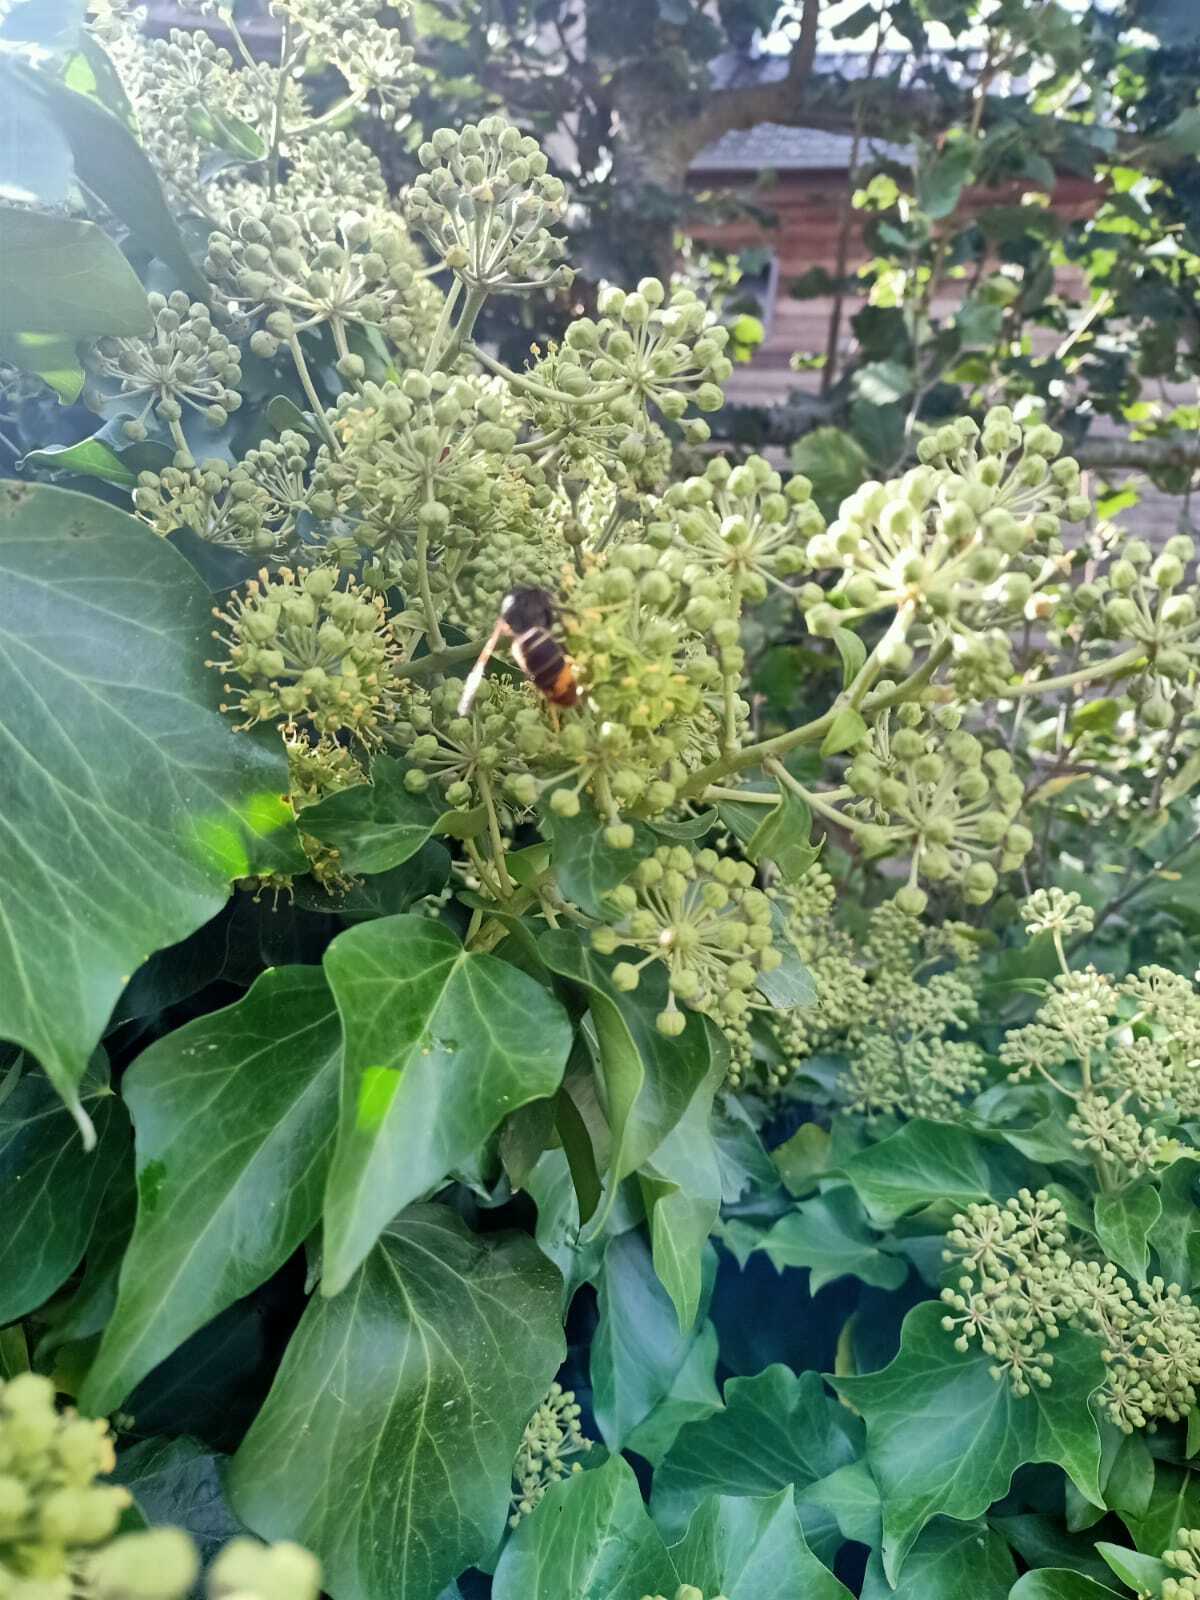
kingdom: Animalia
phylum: Arthropoda
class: Insecta
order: Hymenoptera
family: Vespidae
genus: Vespa
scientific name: Vespa velutina
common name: Asian hornet
